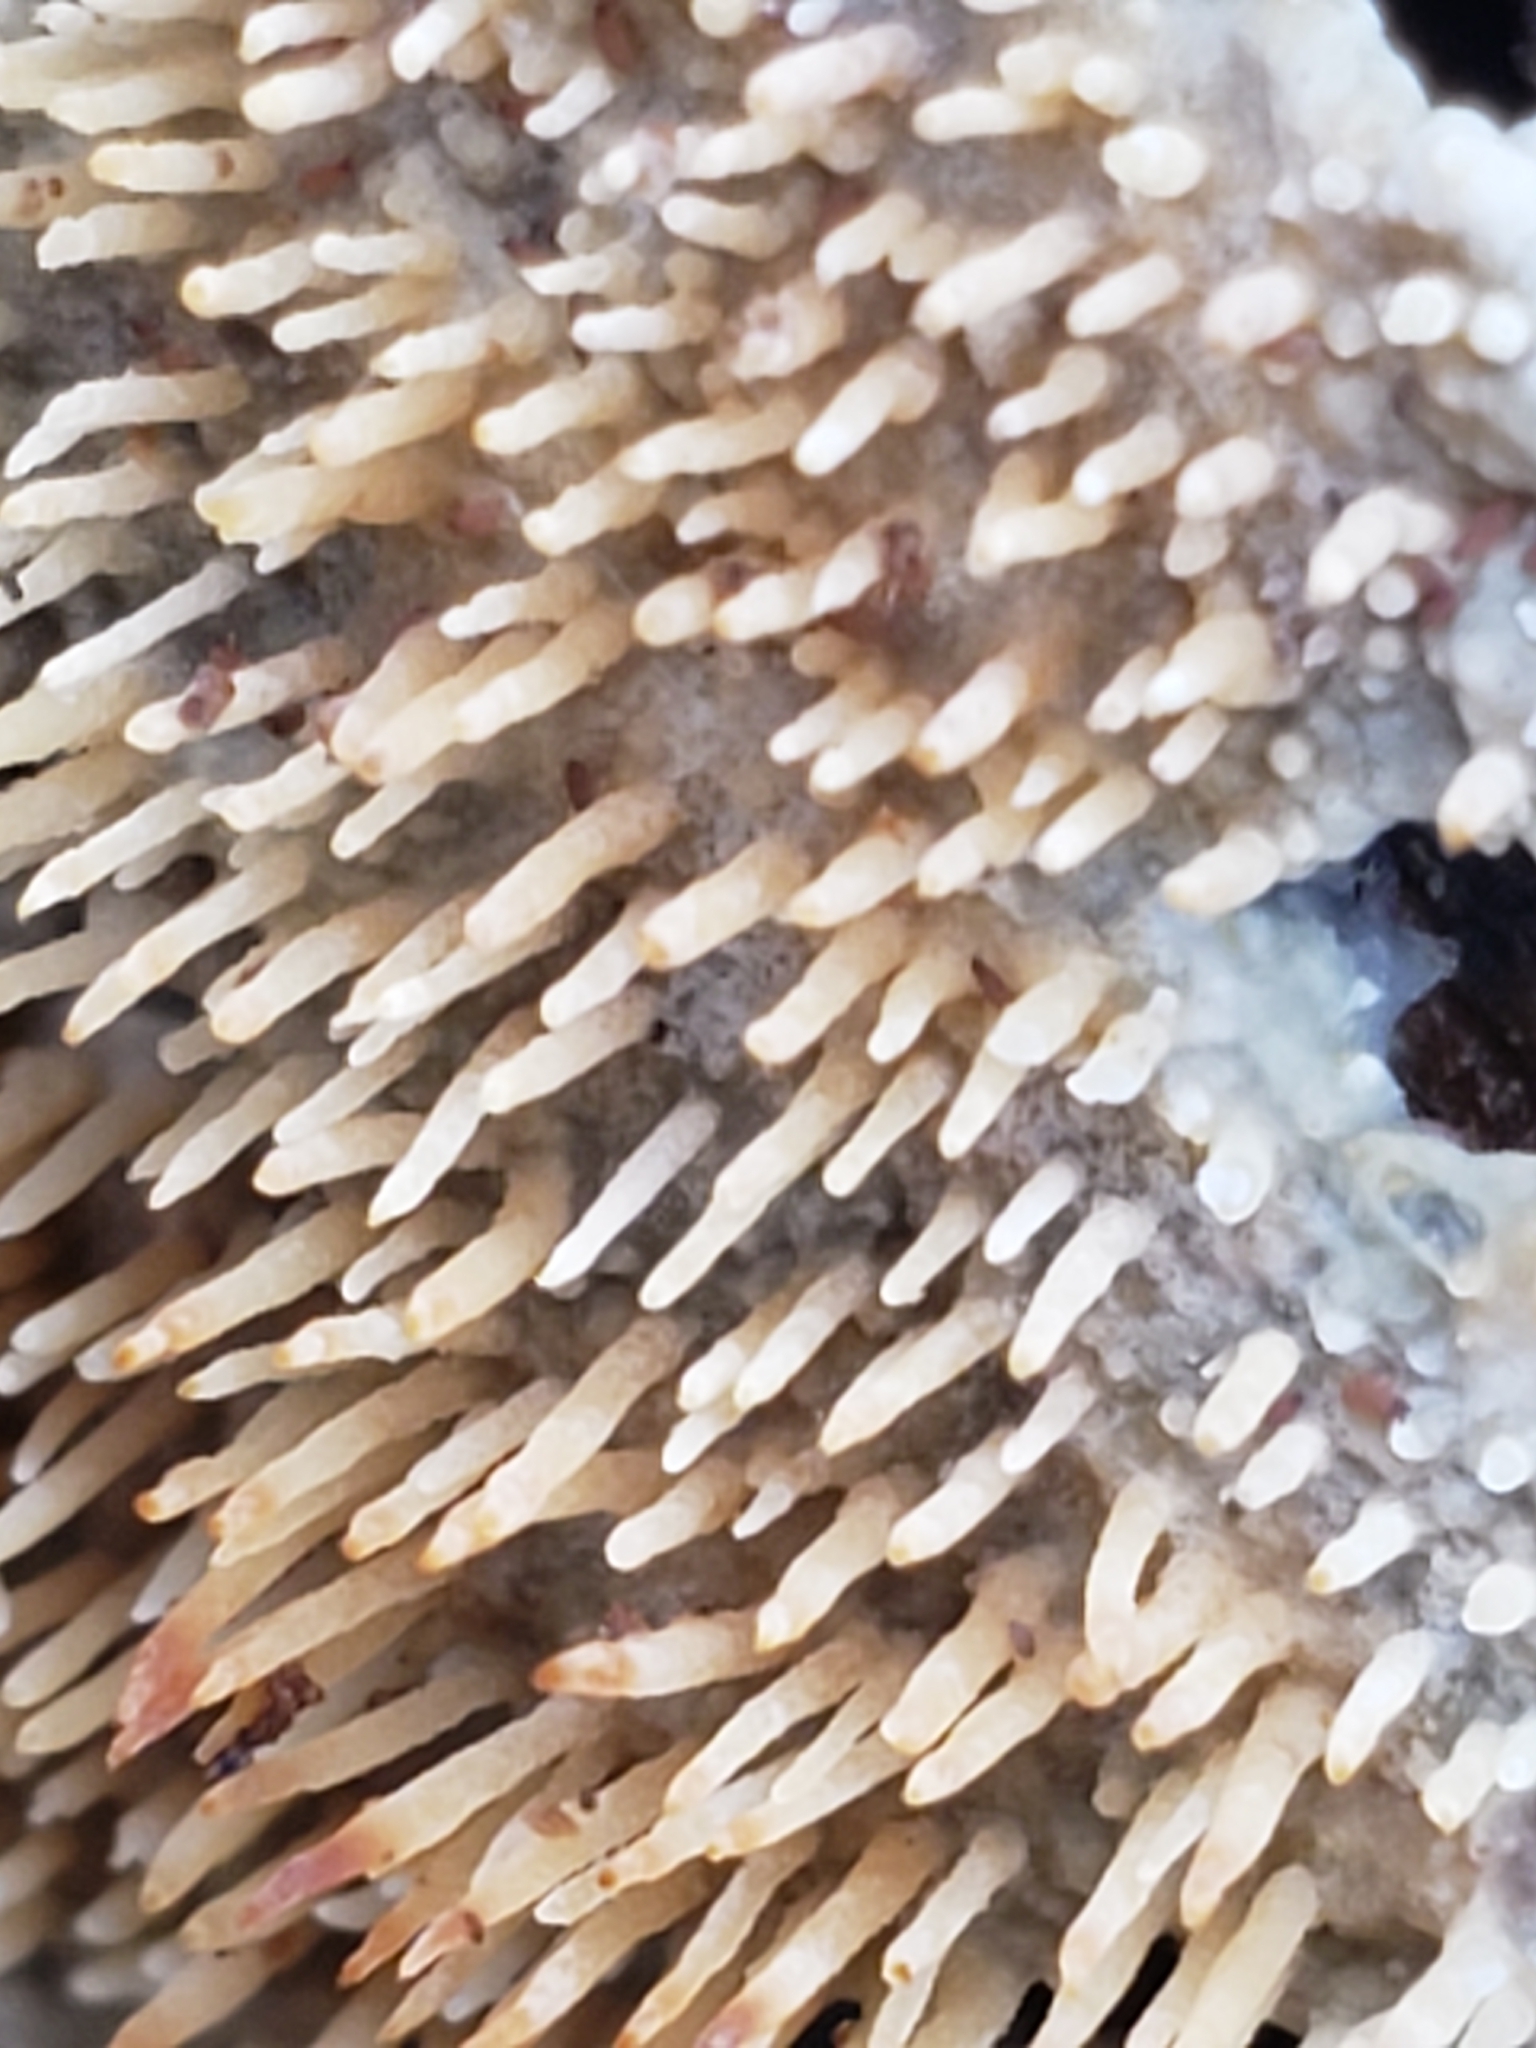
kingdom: Fungi
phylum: Basidiomycota
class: Agaricomycetes
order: Agaricales
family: Radulomycetaceae
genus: Radulomyces
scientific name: Radulomyces copelandii
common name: Asian beauty
